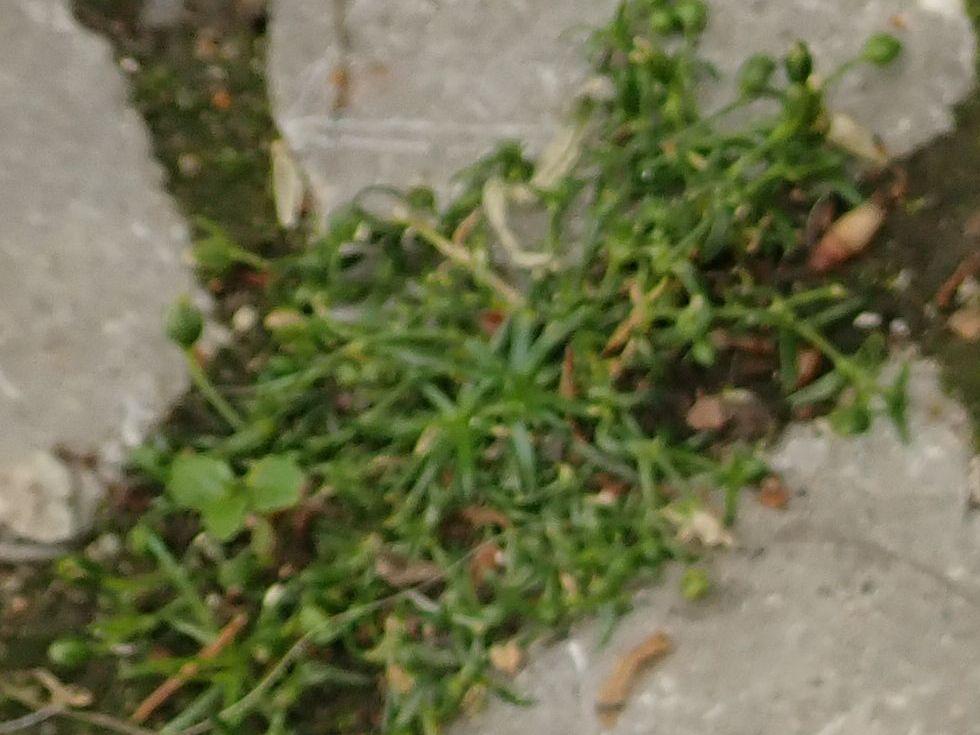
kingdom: Plantae
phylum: Tracheophyta
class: Magnoliopsida
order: Caryophyllales
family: Caryophyllaceae
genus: Sagina
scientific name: Sagina procumbens
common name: Procumbent pearlwort
